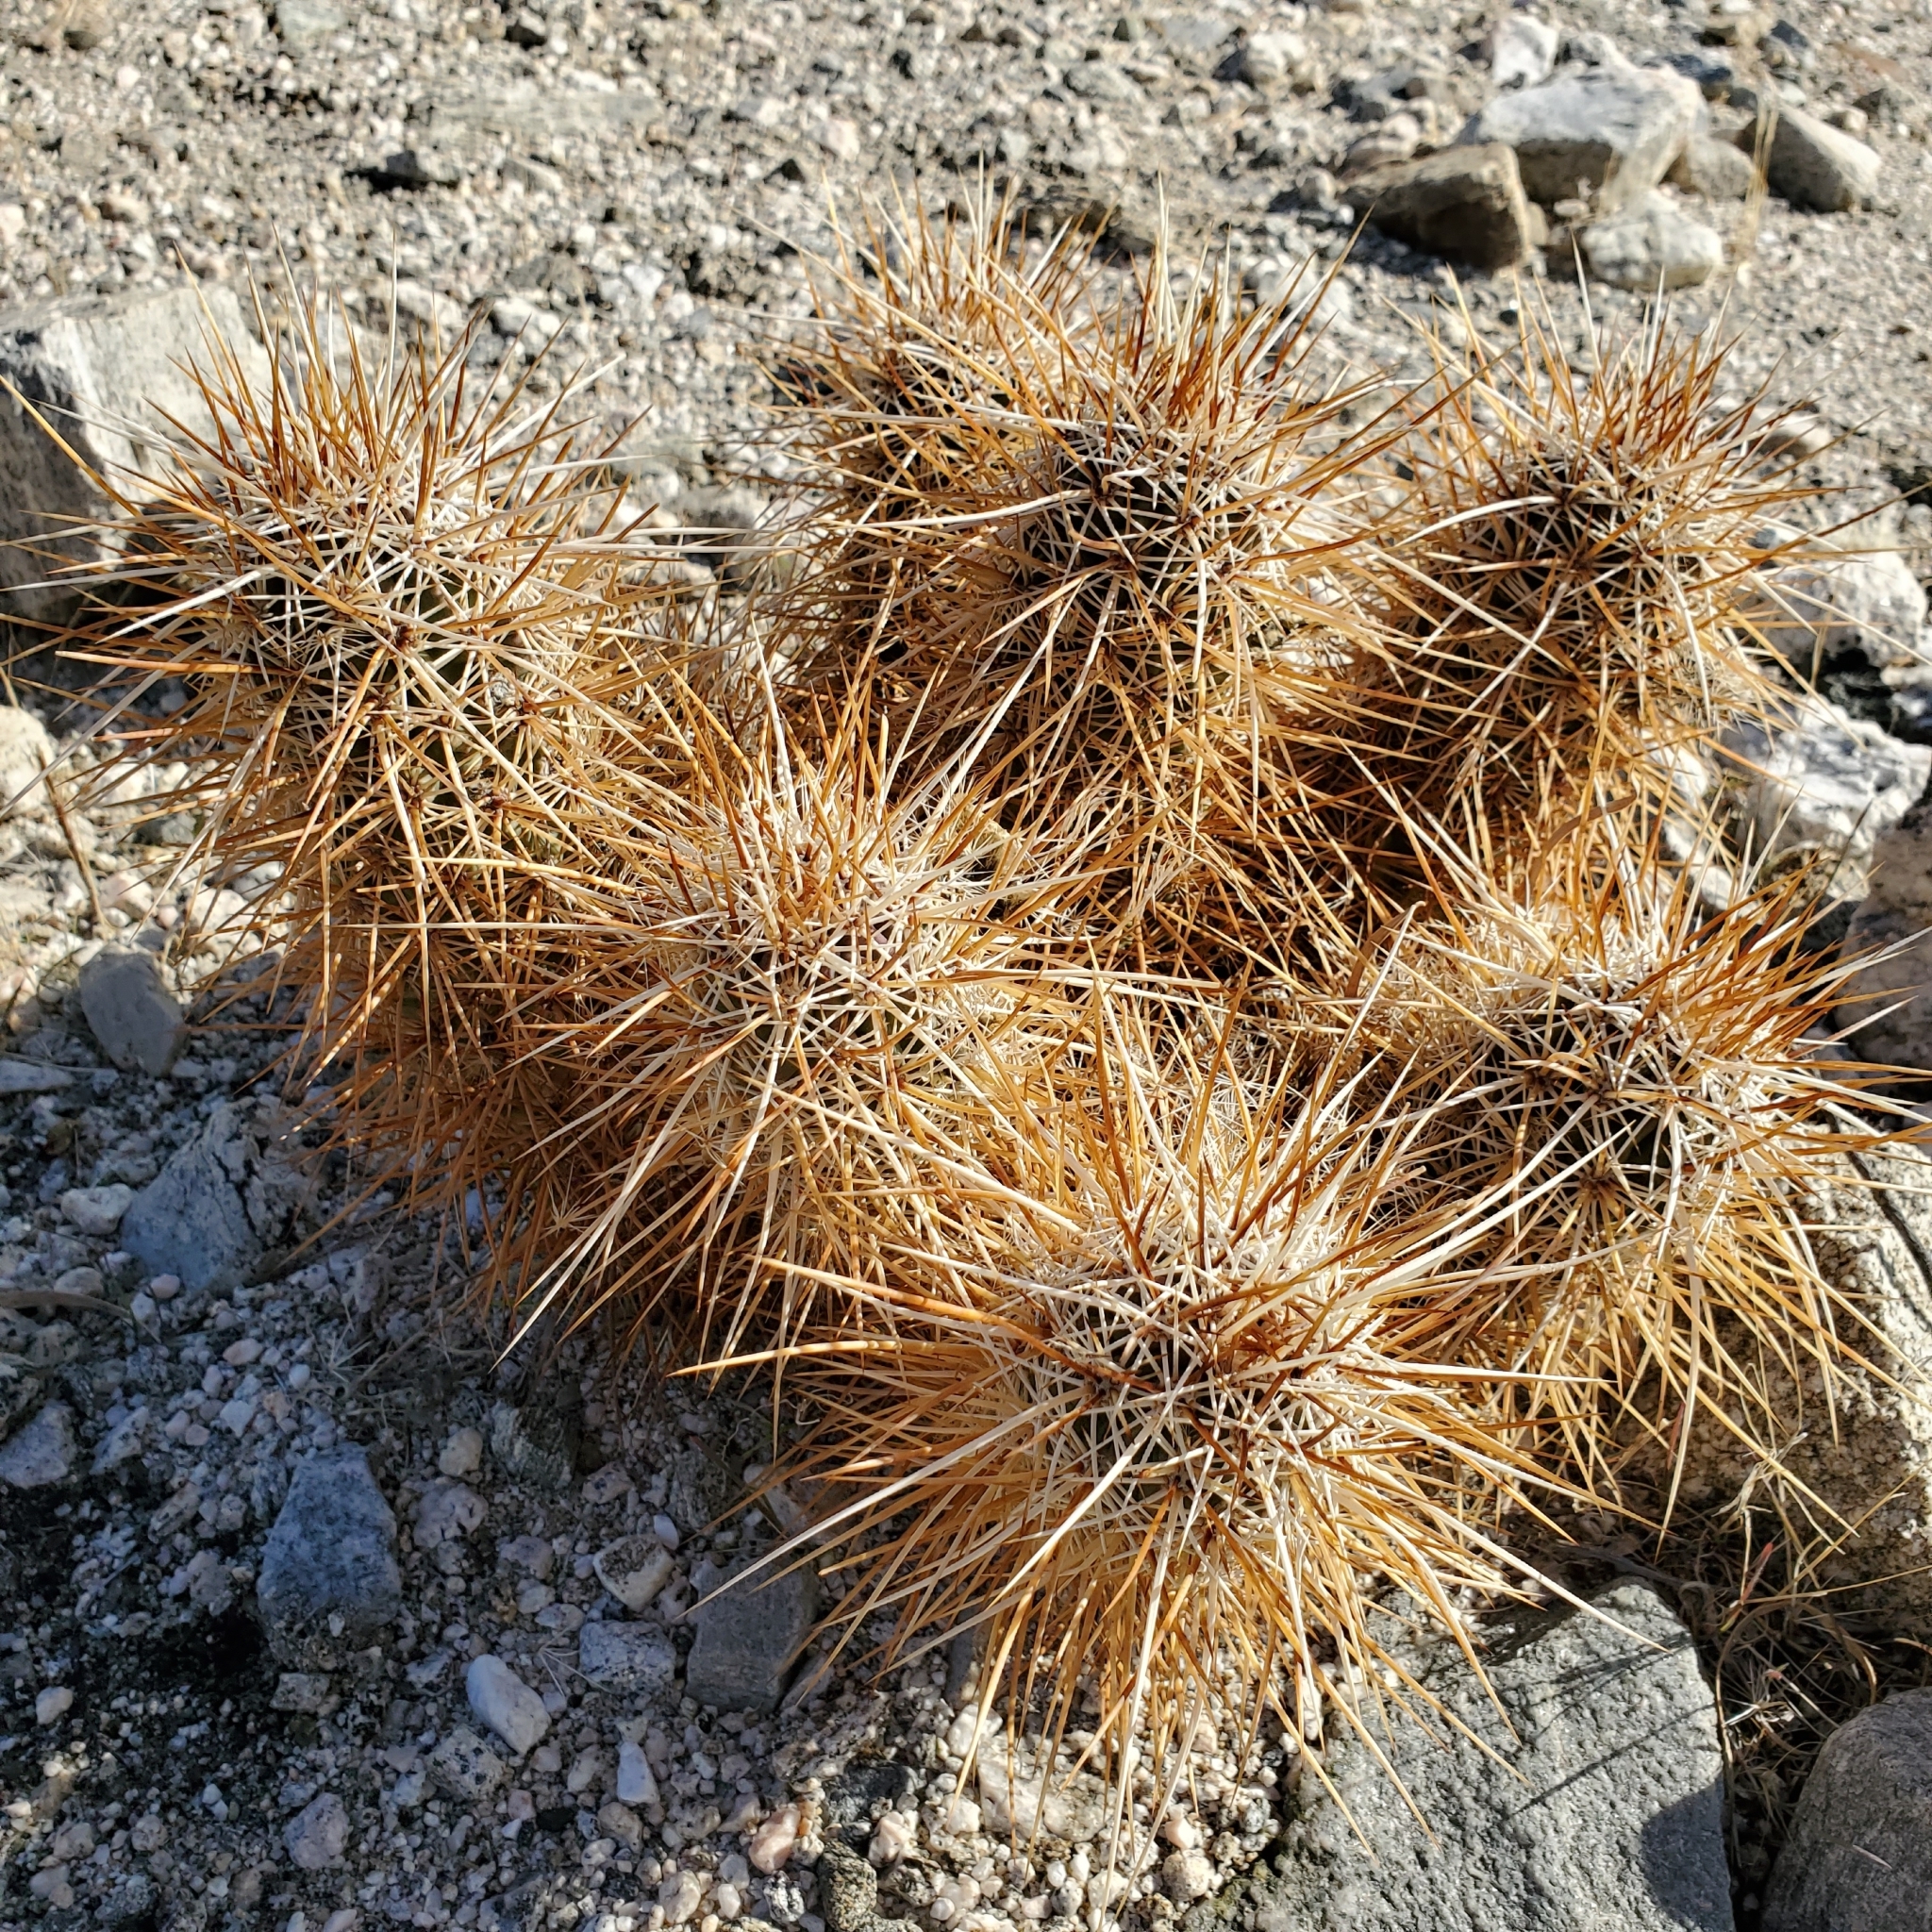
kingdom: Plantae
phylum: Tracheophyta
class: Magnoliopsida
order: Caryophyllales
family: Cactaceae
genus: Echinocereus
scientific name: Echinocereus engelmannii
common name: Engelmann's hedgehog cactus
